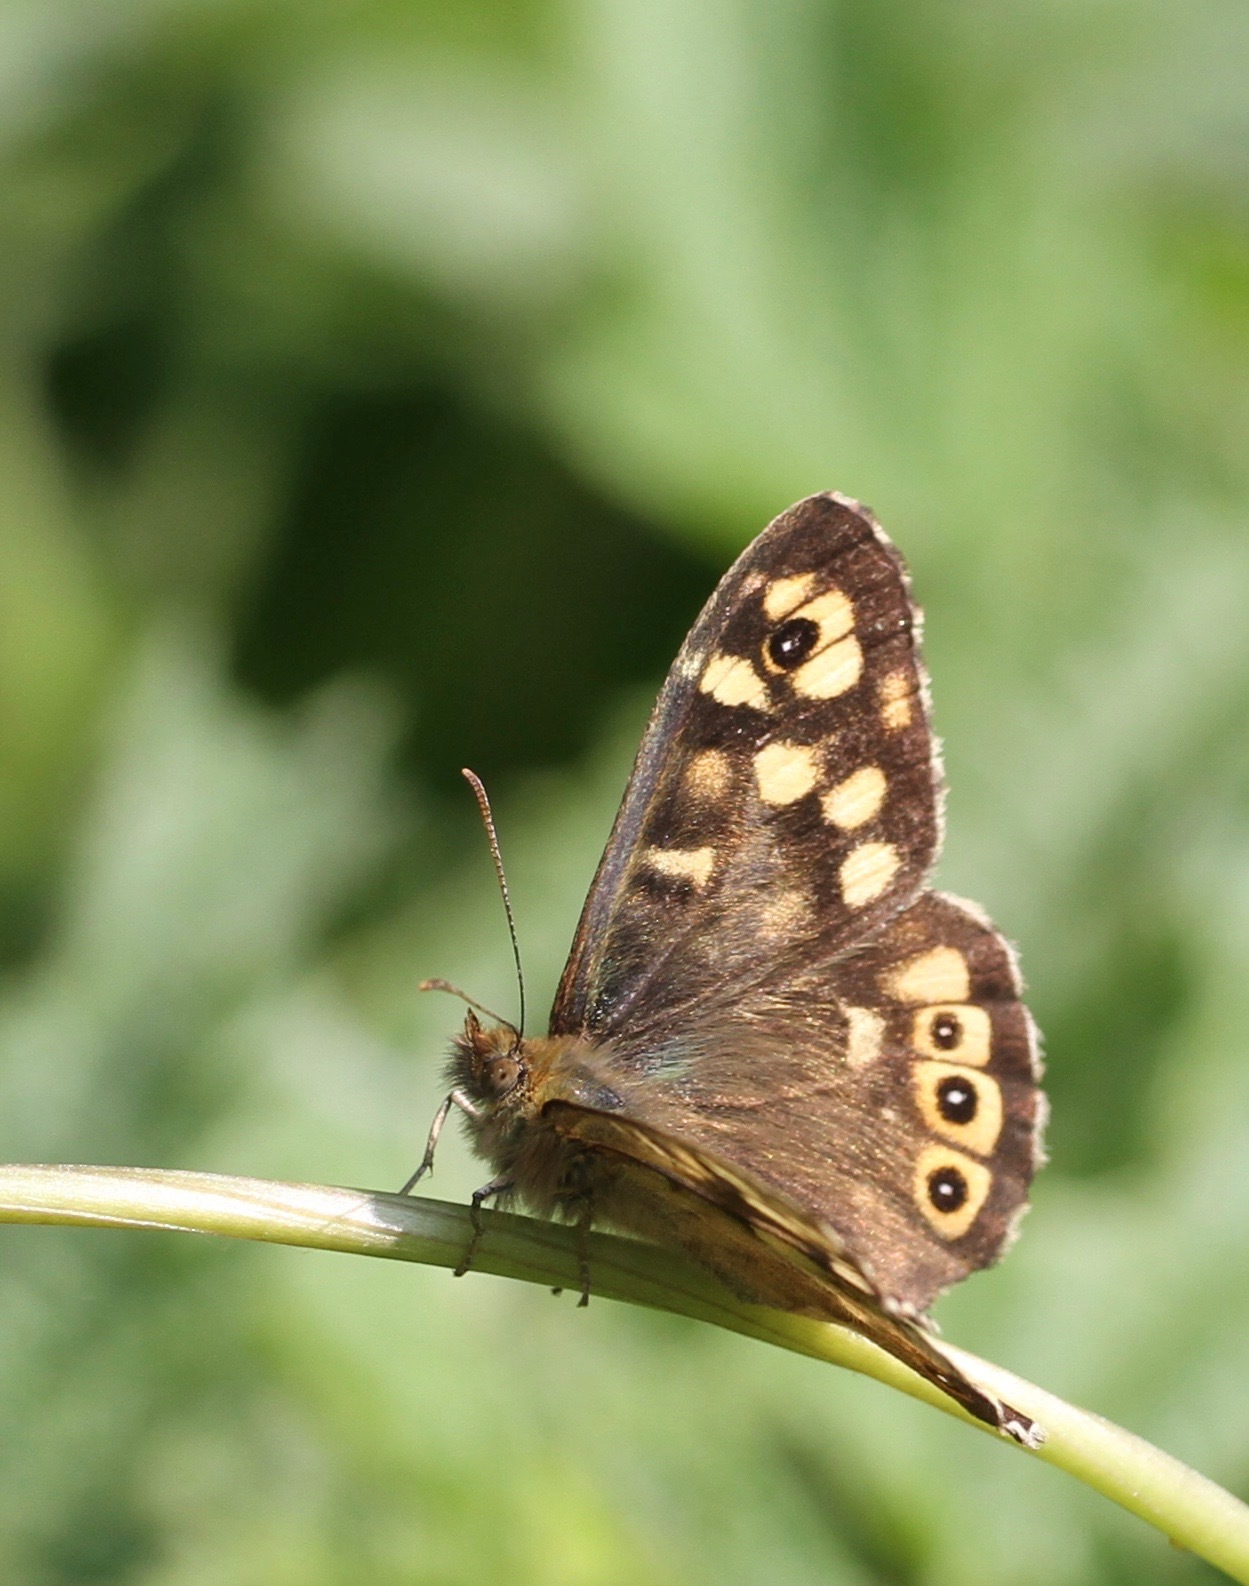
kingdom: Animalia
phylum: Arthropoda
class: Insecta
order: Lepidoptera
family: Nymphalidae
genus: Pararge
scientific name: Pararge aegeria
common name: Speckled wood
